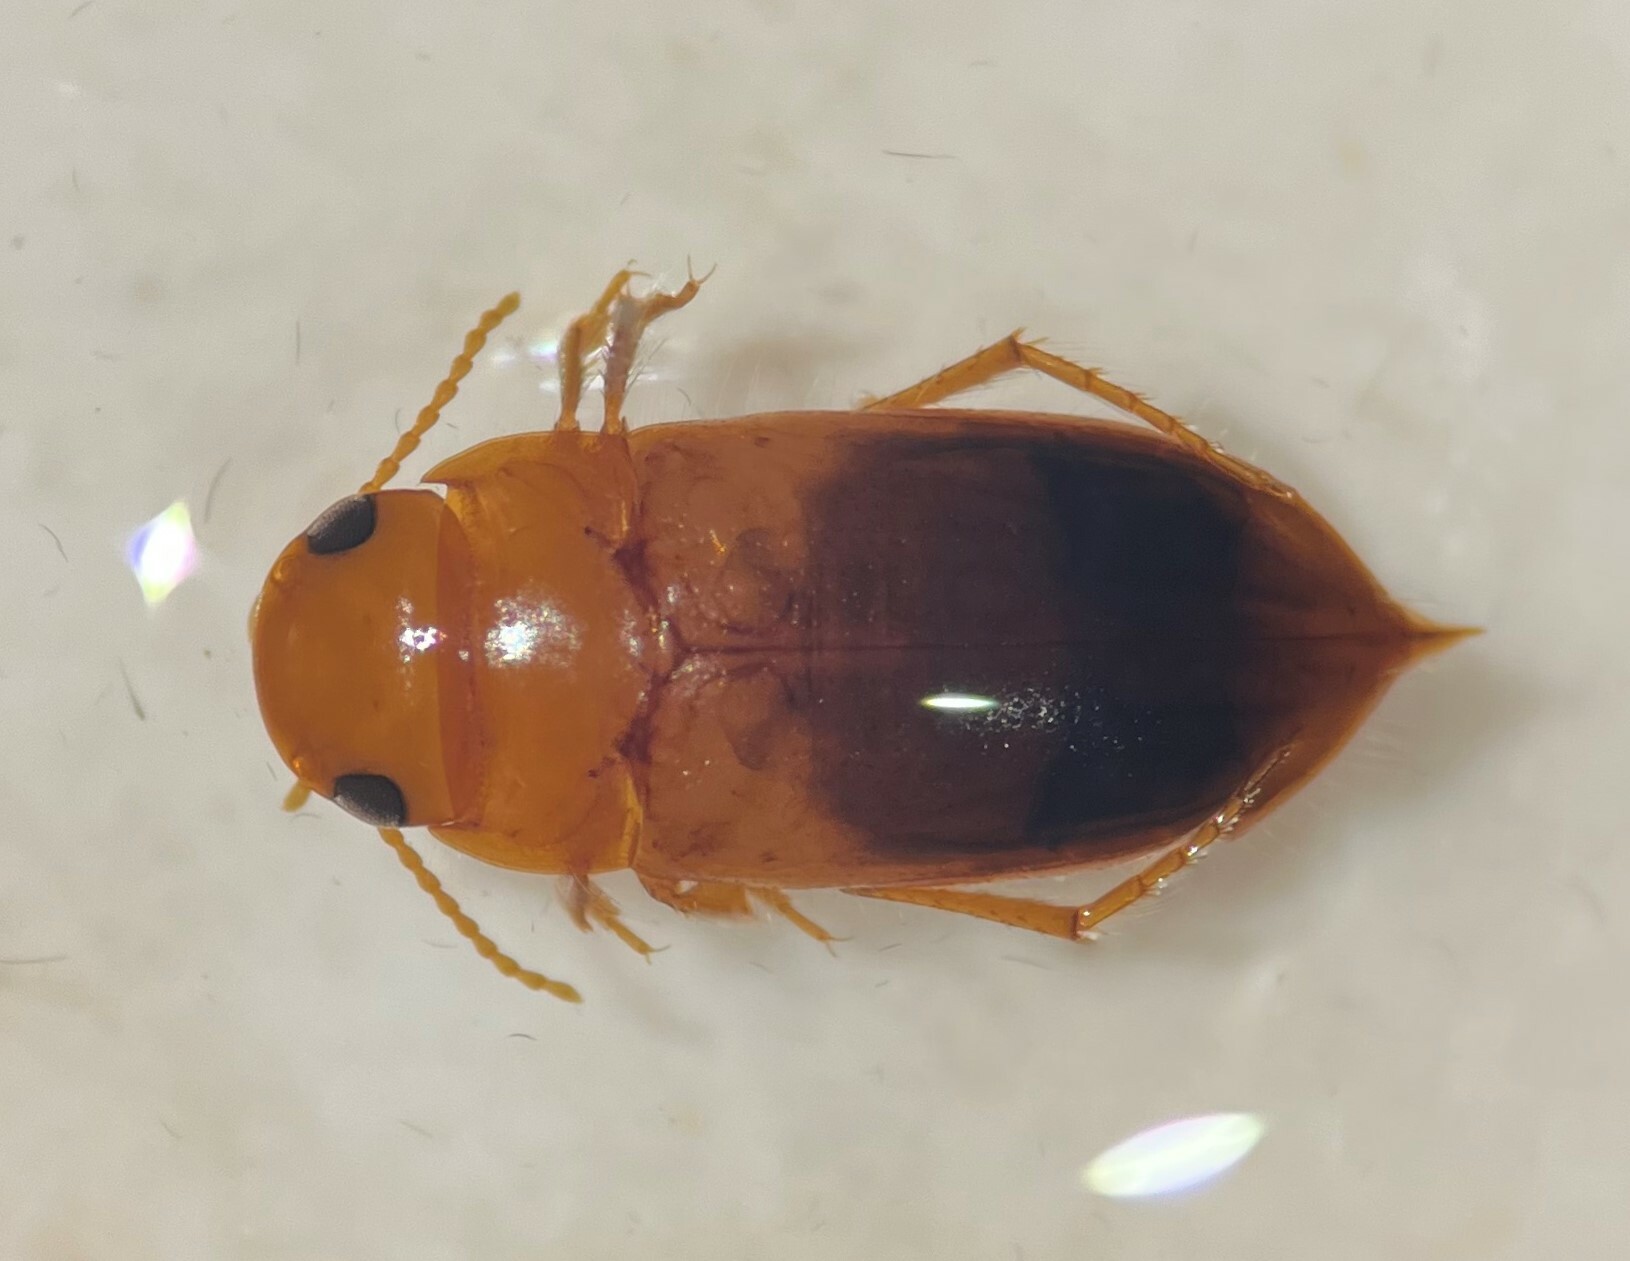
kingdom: Animalia
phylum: Arthropoda
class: Insecta
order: Coleoptera
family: Dytiscidae
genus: Celina
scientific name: Celina hubbelli
